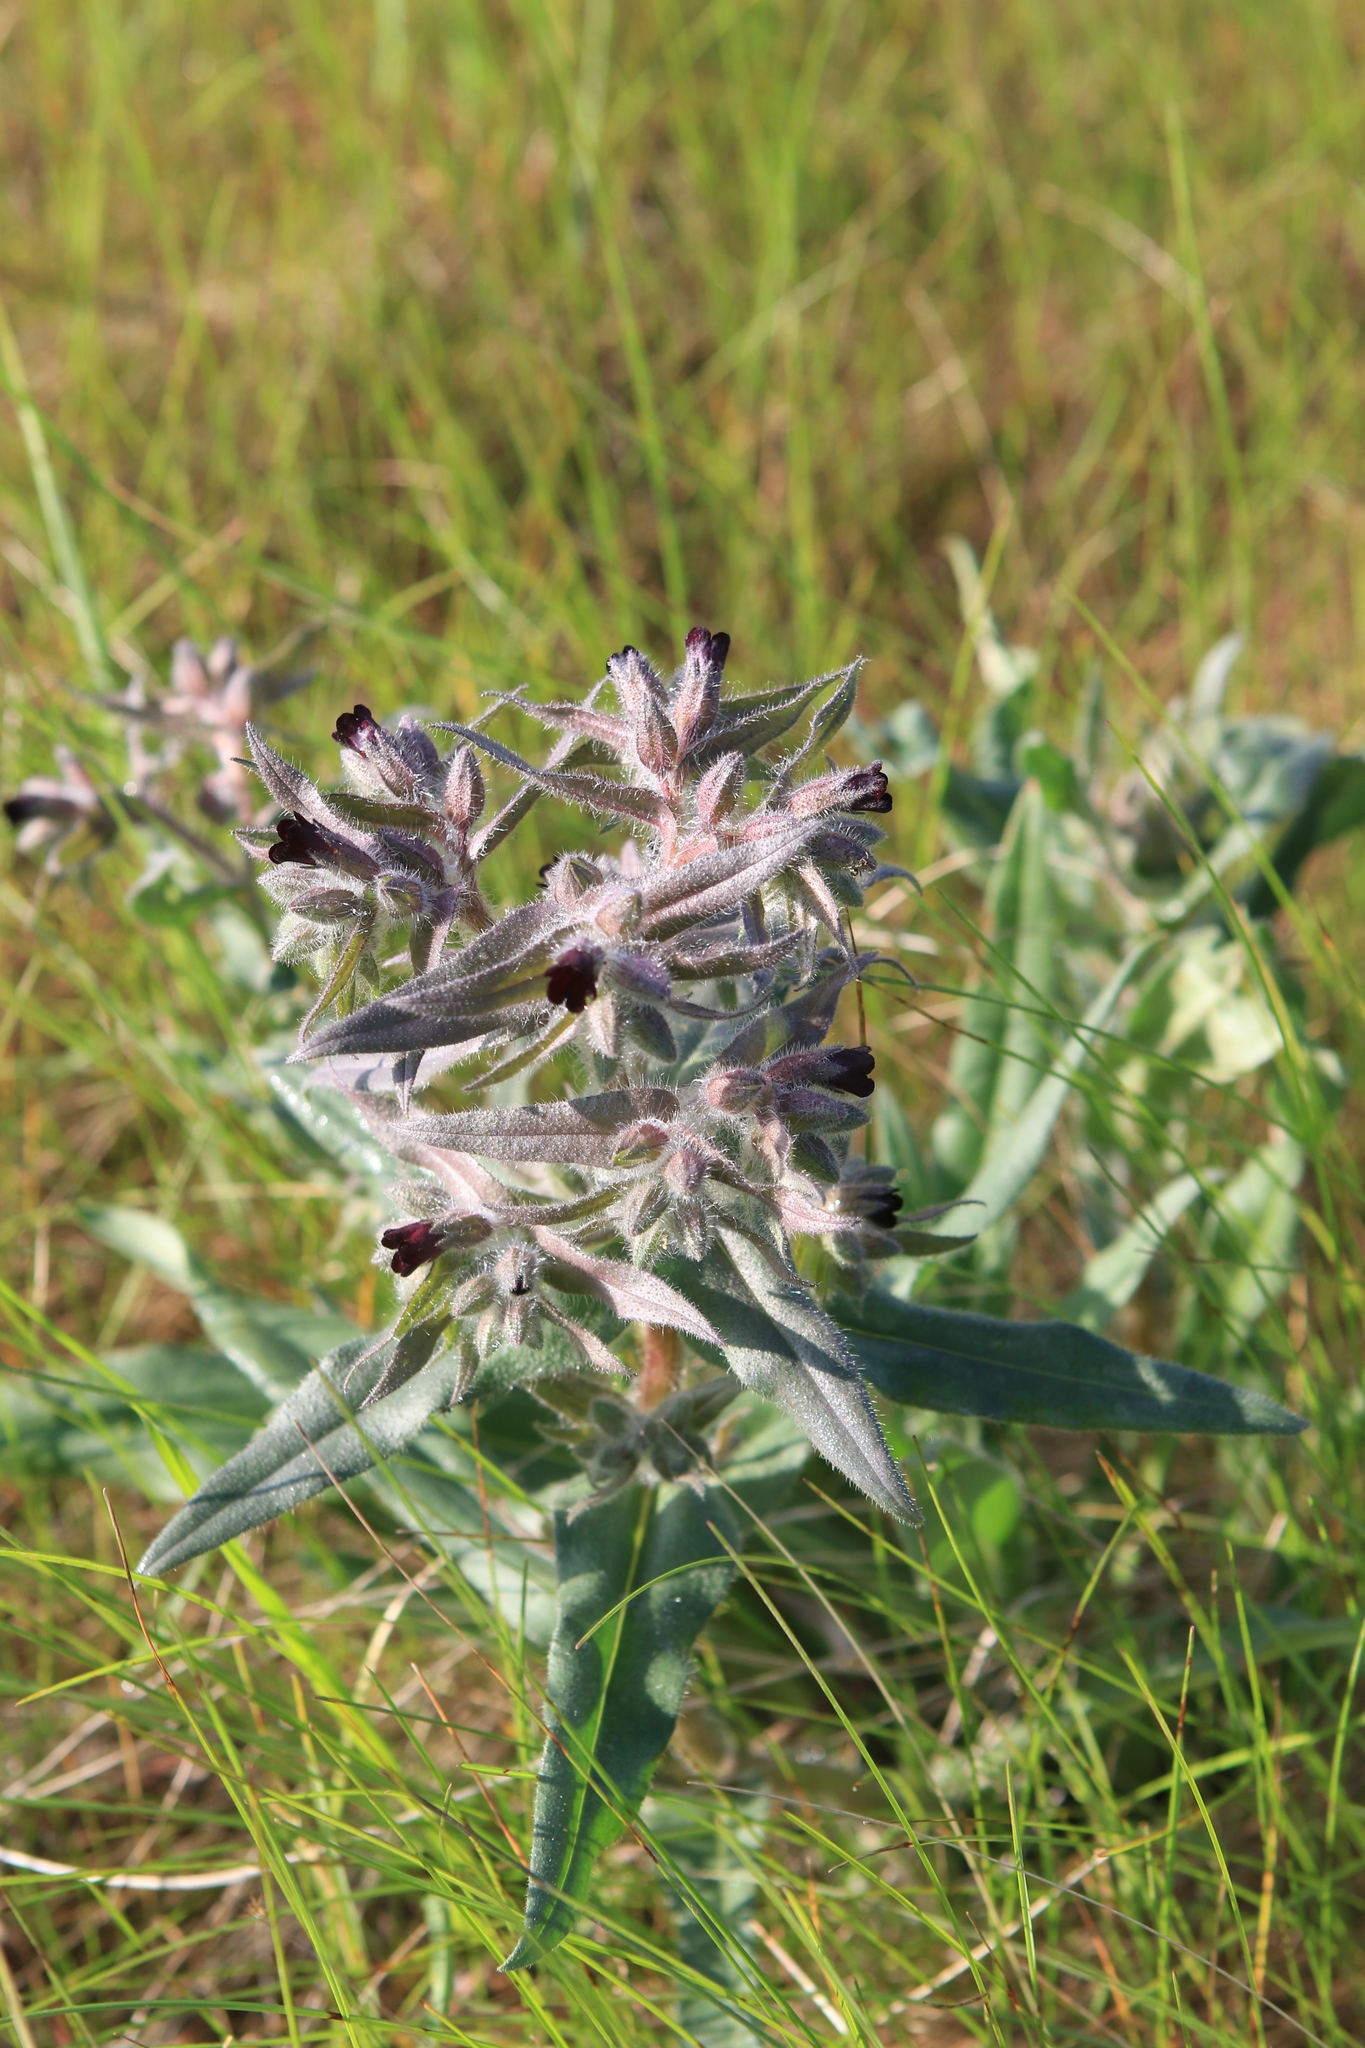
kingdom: Plantae
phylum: Tracheophyta
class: Magnoliopsida
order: Boraginales
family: Boraginaceae
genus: Nonea
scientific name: Nonea pulla
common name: Brown nonea
